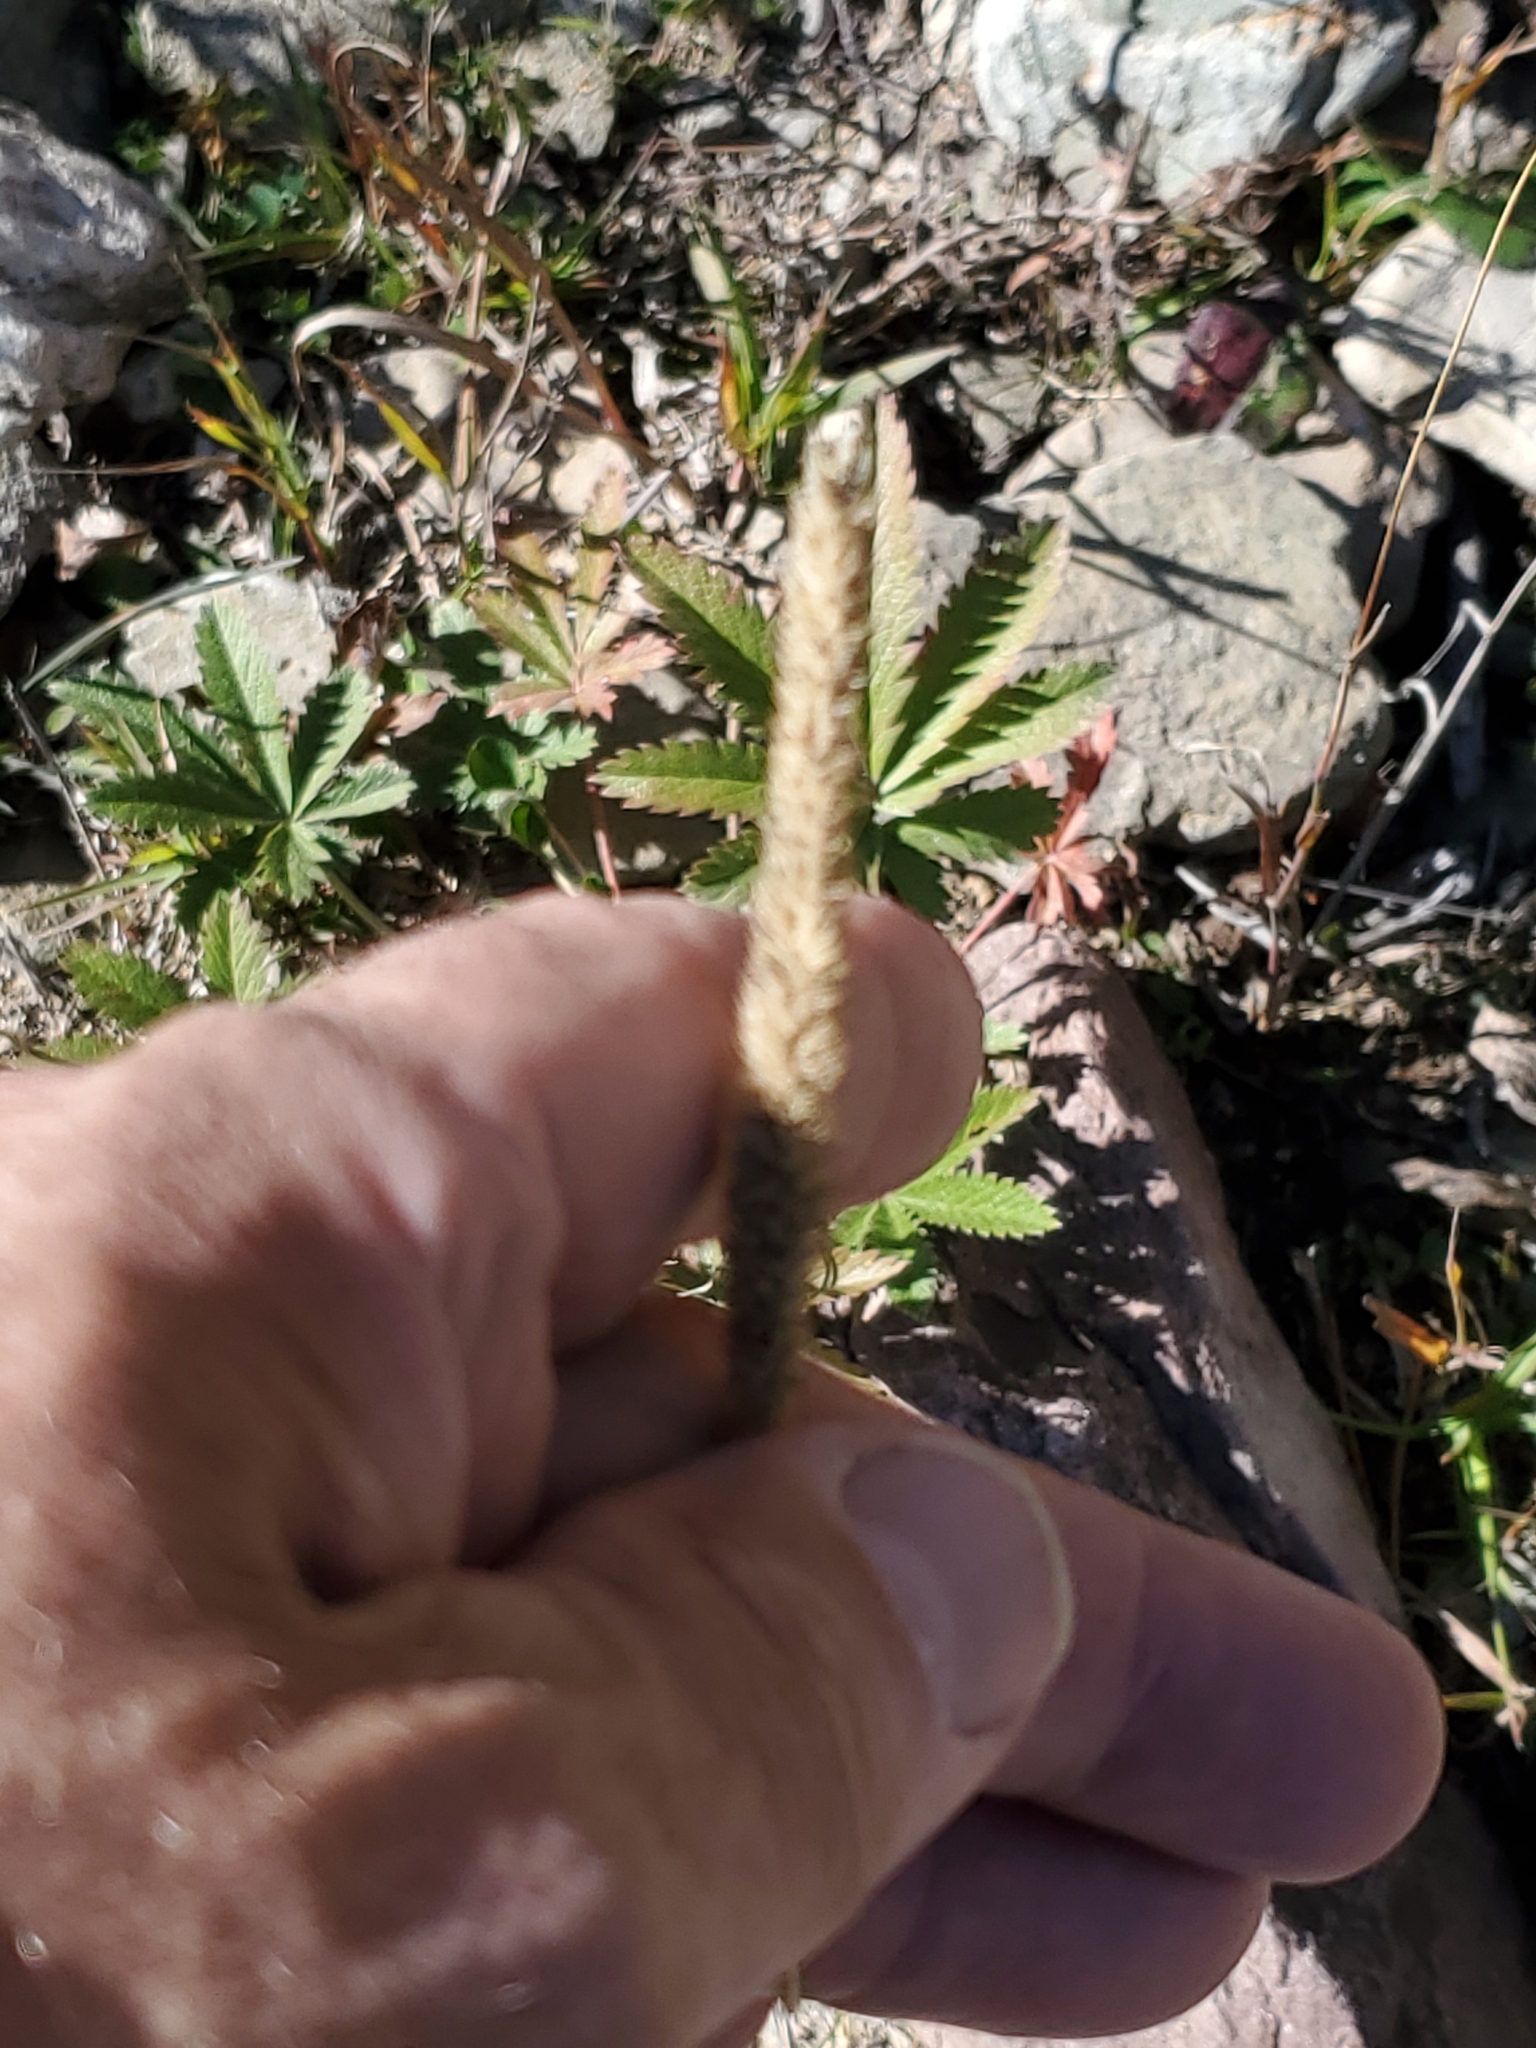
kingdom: Plantae
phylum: Tracheophyta
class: Liliopsida
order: Poales
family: Poaceae
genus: Phleum
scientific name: Phleum pratense
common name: Timothy grass
